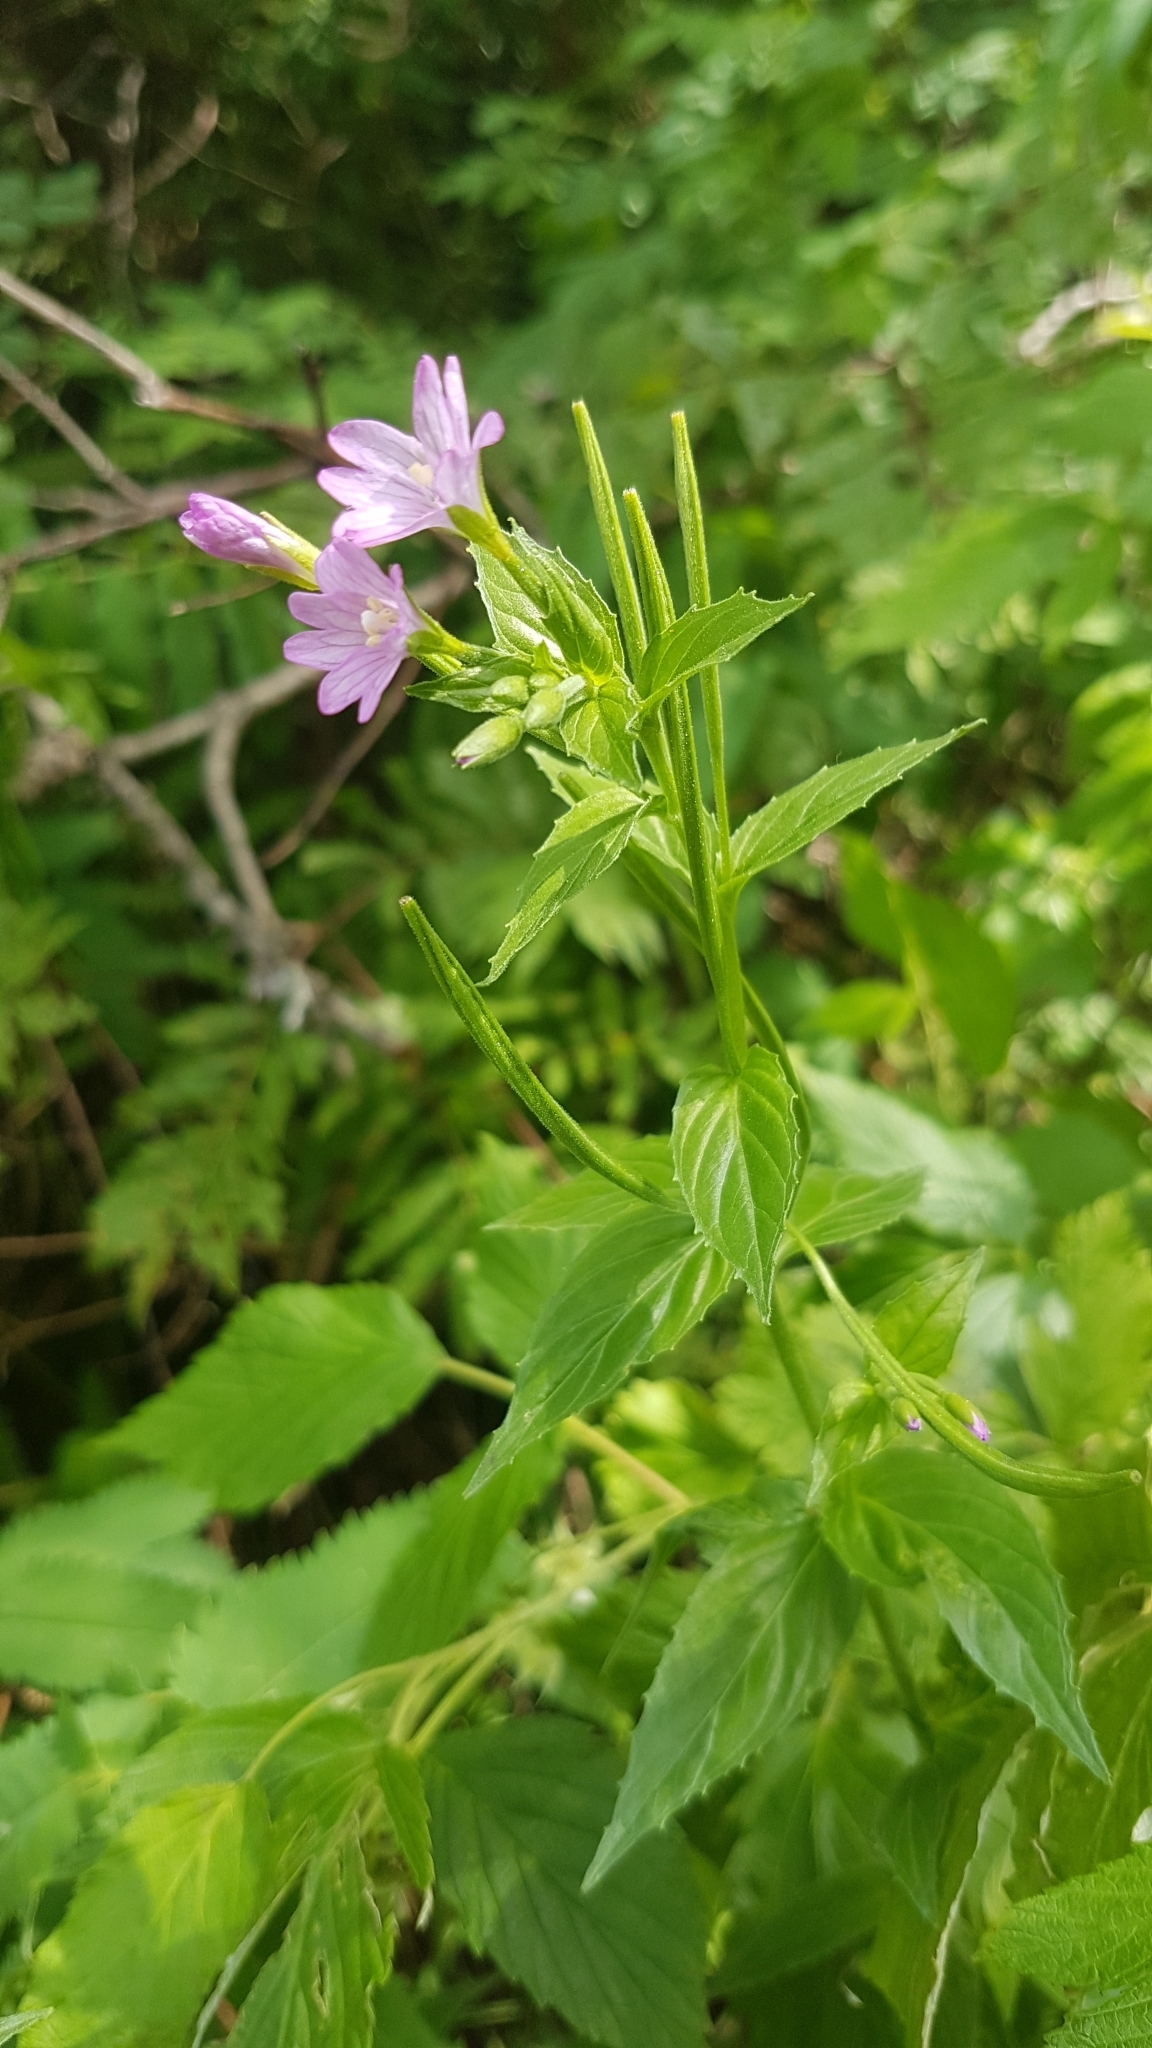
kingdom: Plantae
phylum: Tracheophyta
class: Magnoliopsida
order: Myrtales
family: Onagraceae
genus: Epilobium
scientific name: Epilobium alpestre
